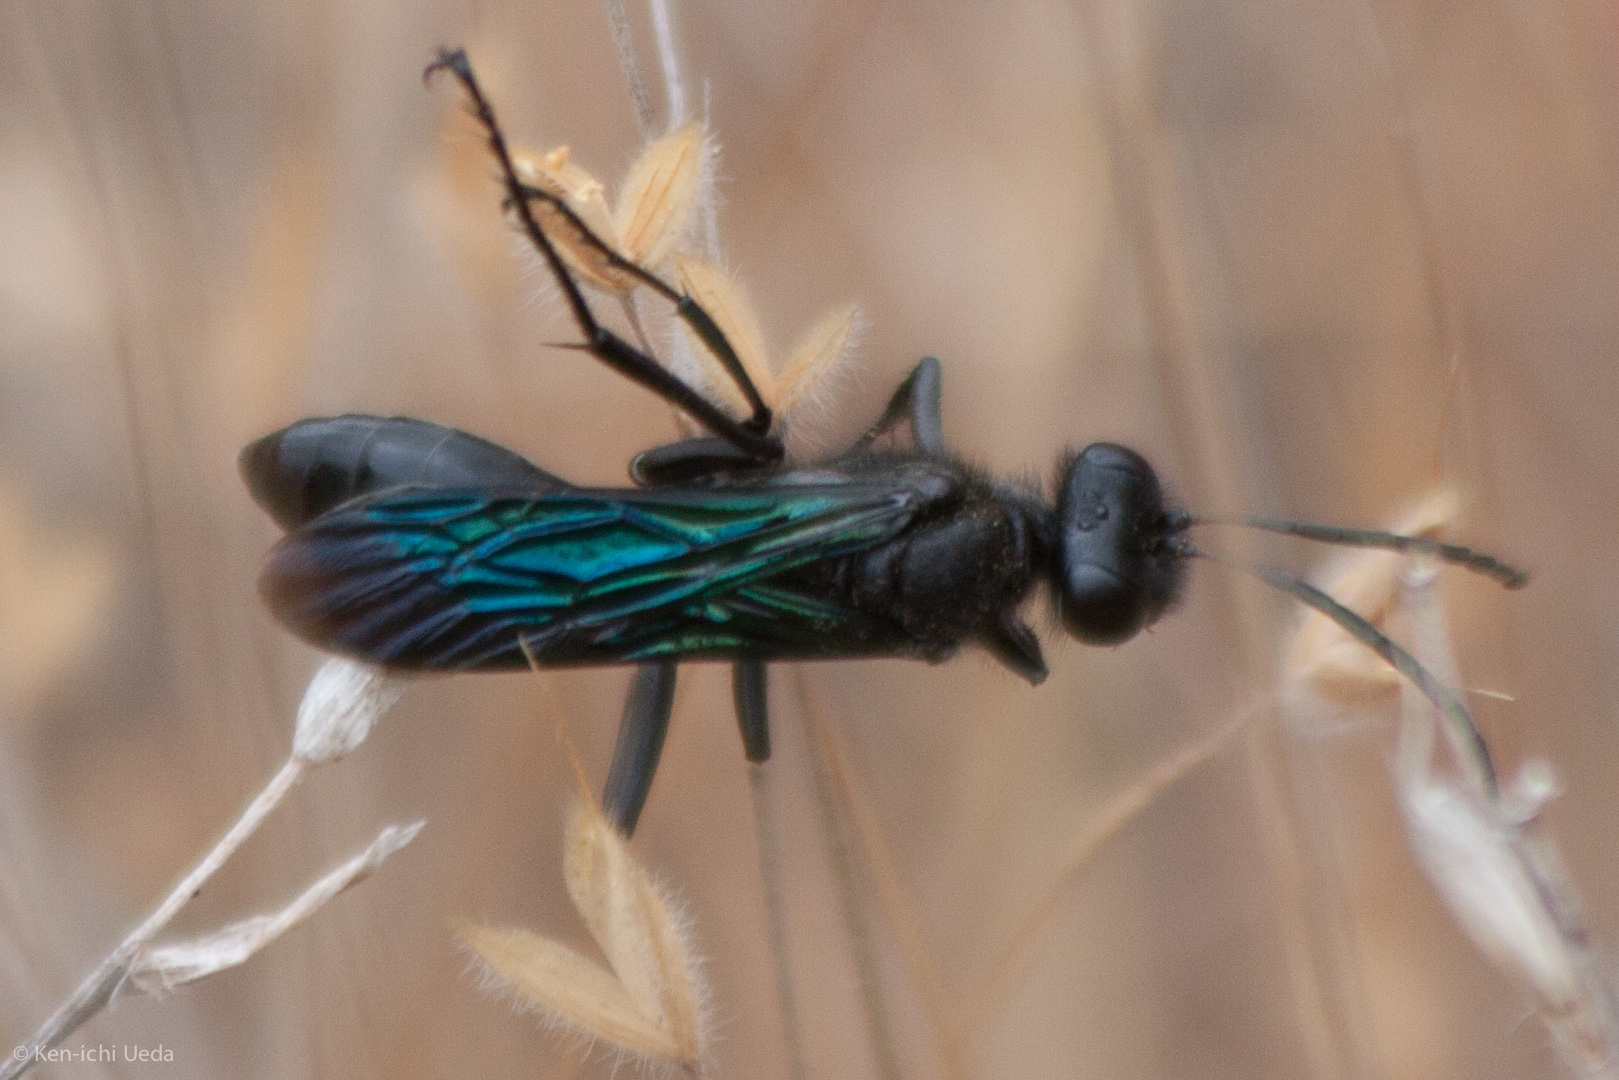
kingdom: Animalia
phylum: Arthropoda
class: Insecta
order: Hymenoptera
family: Sphecidae
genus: Sphex
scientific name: Sphex
